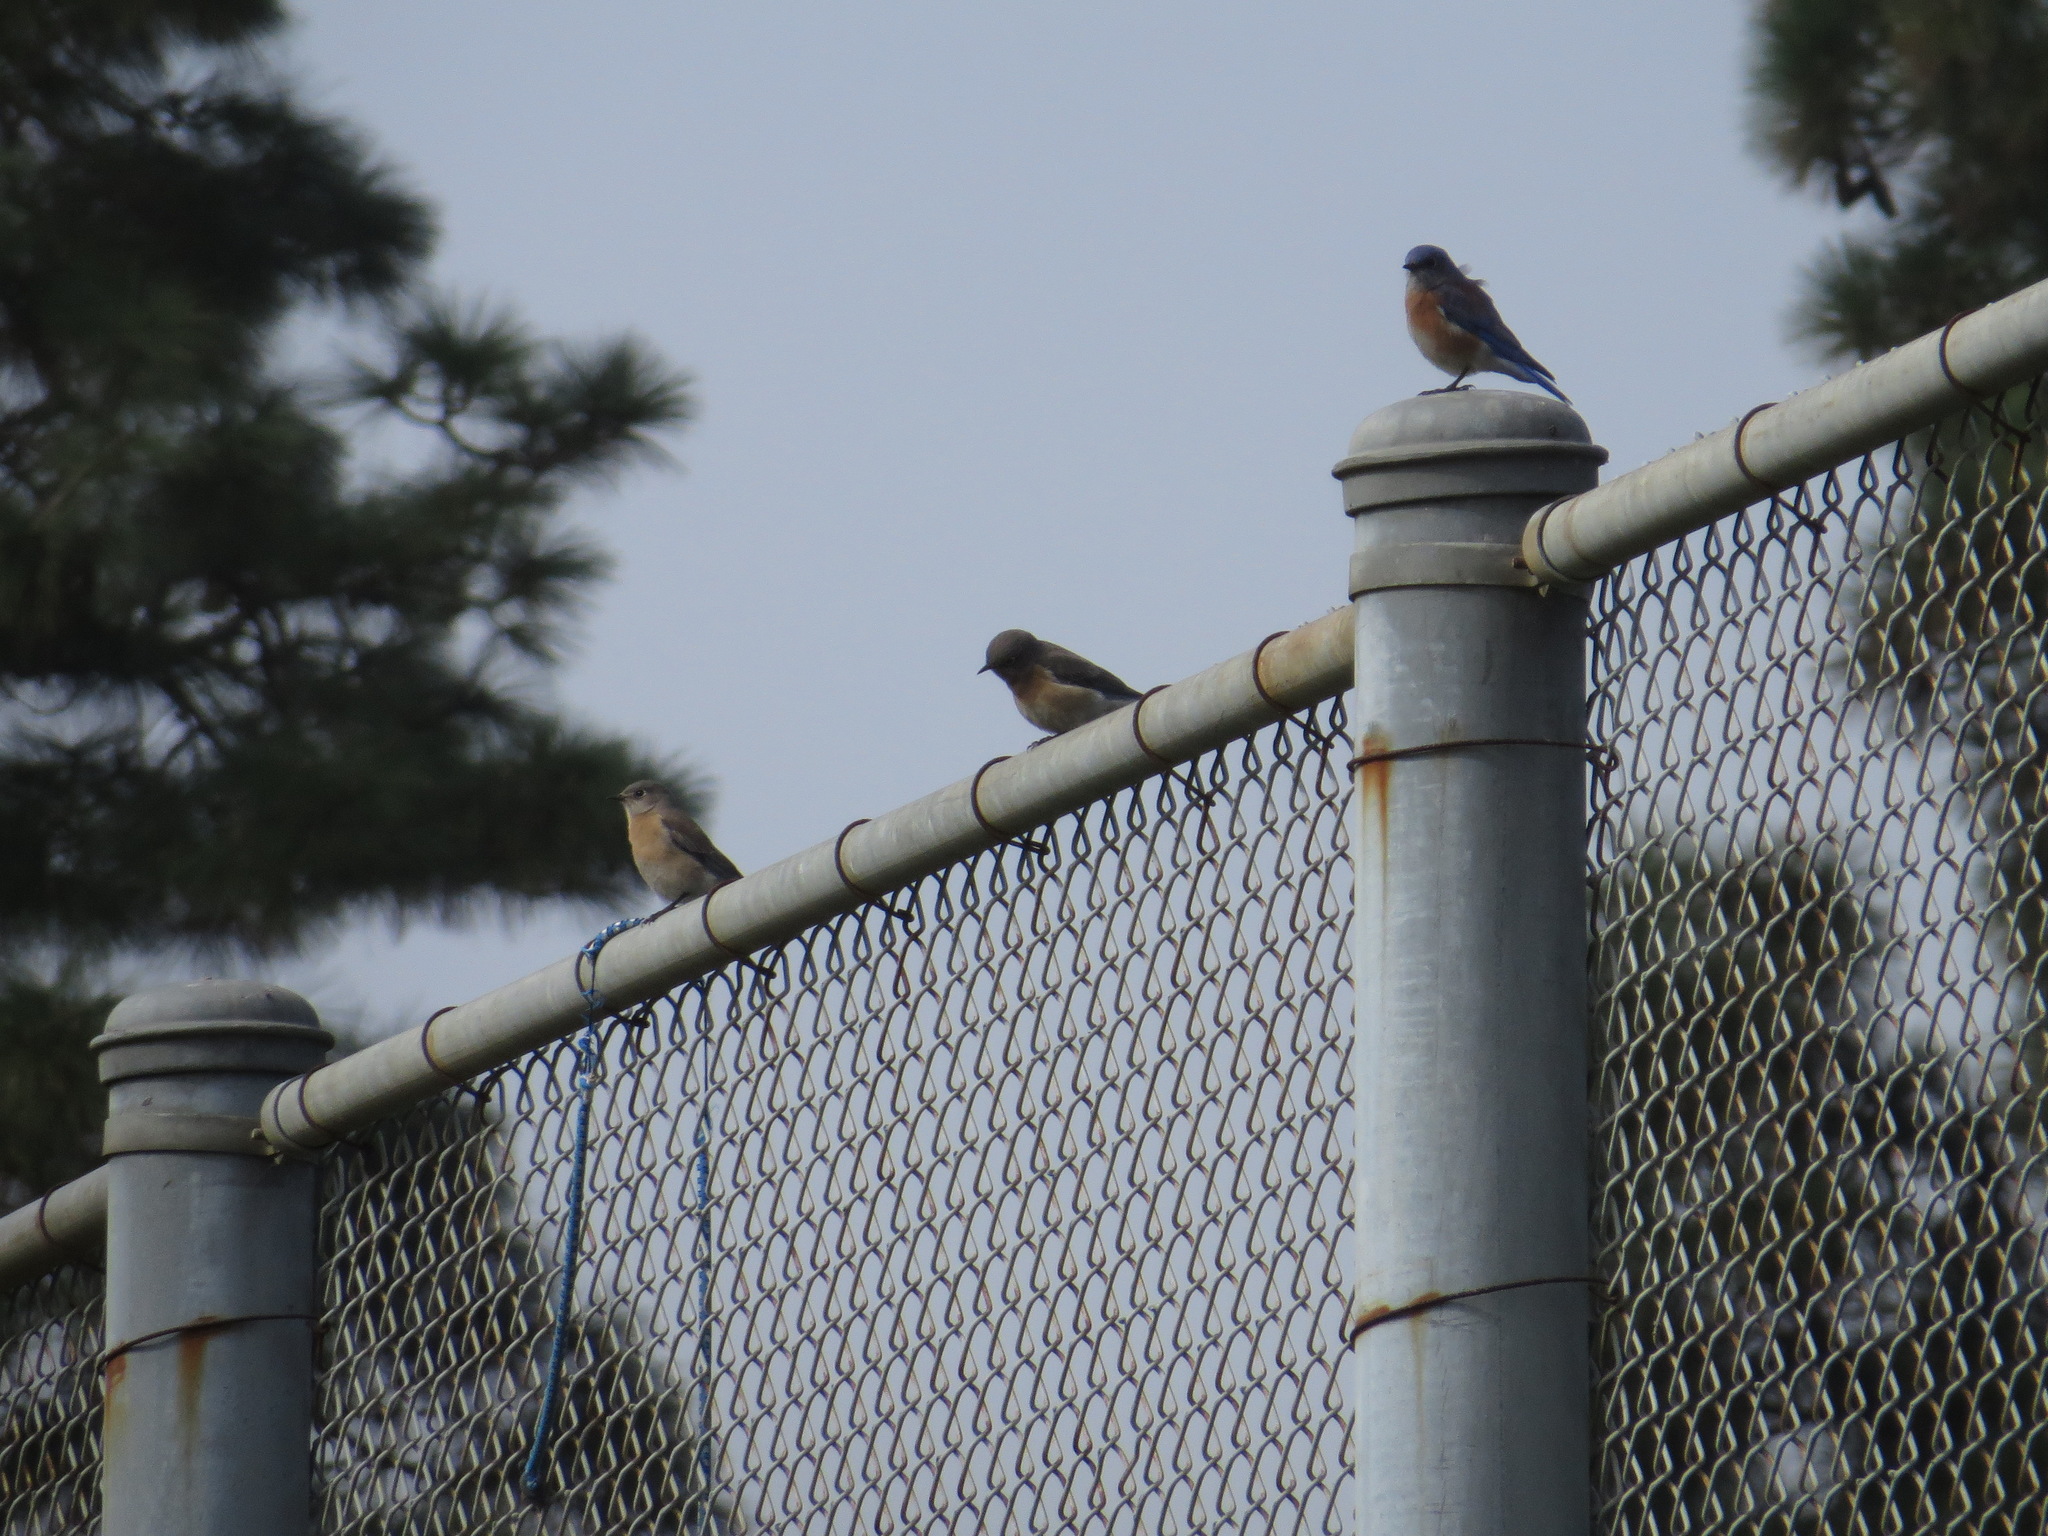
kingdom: Animalia
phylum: Chordata
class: Aves
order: Passeriformes
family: Turdidae
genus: Sialia
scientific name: Sialia mexicana
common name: Western bluebird
